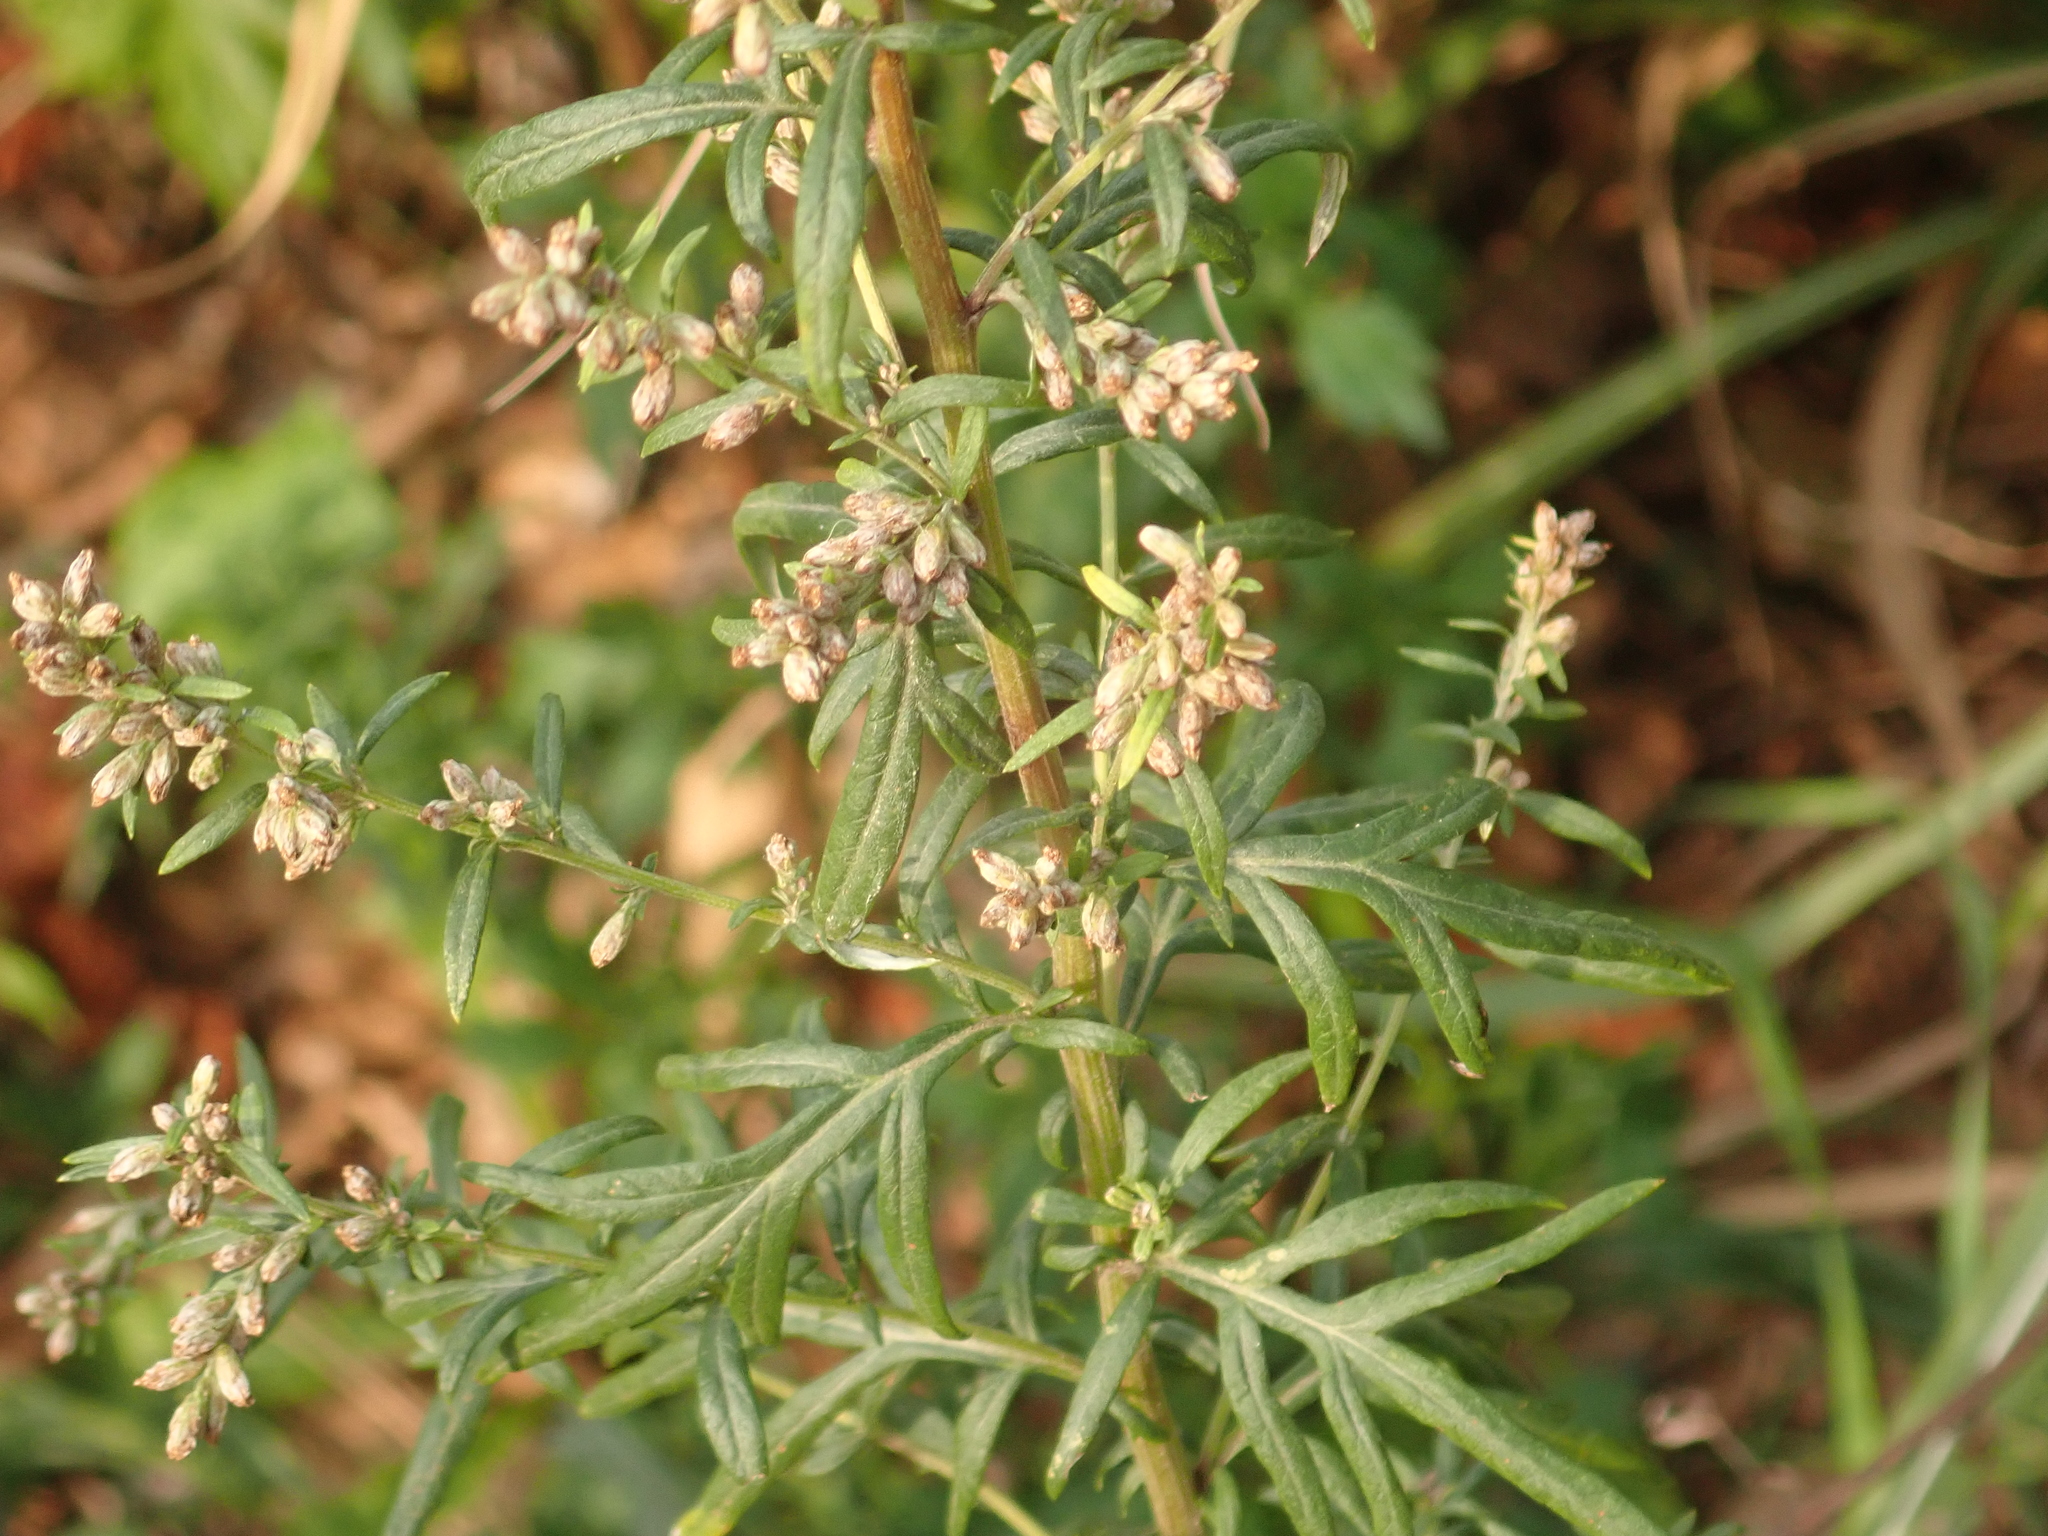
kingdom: Plantae
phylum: Tracheophyta
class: Magnoliopsida
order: Asterales
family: Asteraceae
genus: Artemisia
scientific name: Artemisia vulgaris
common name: Mugwort
